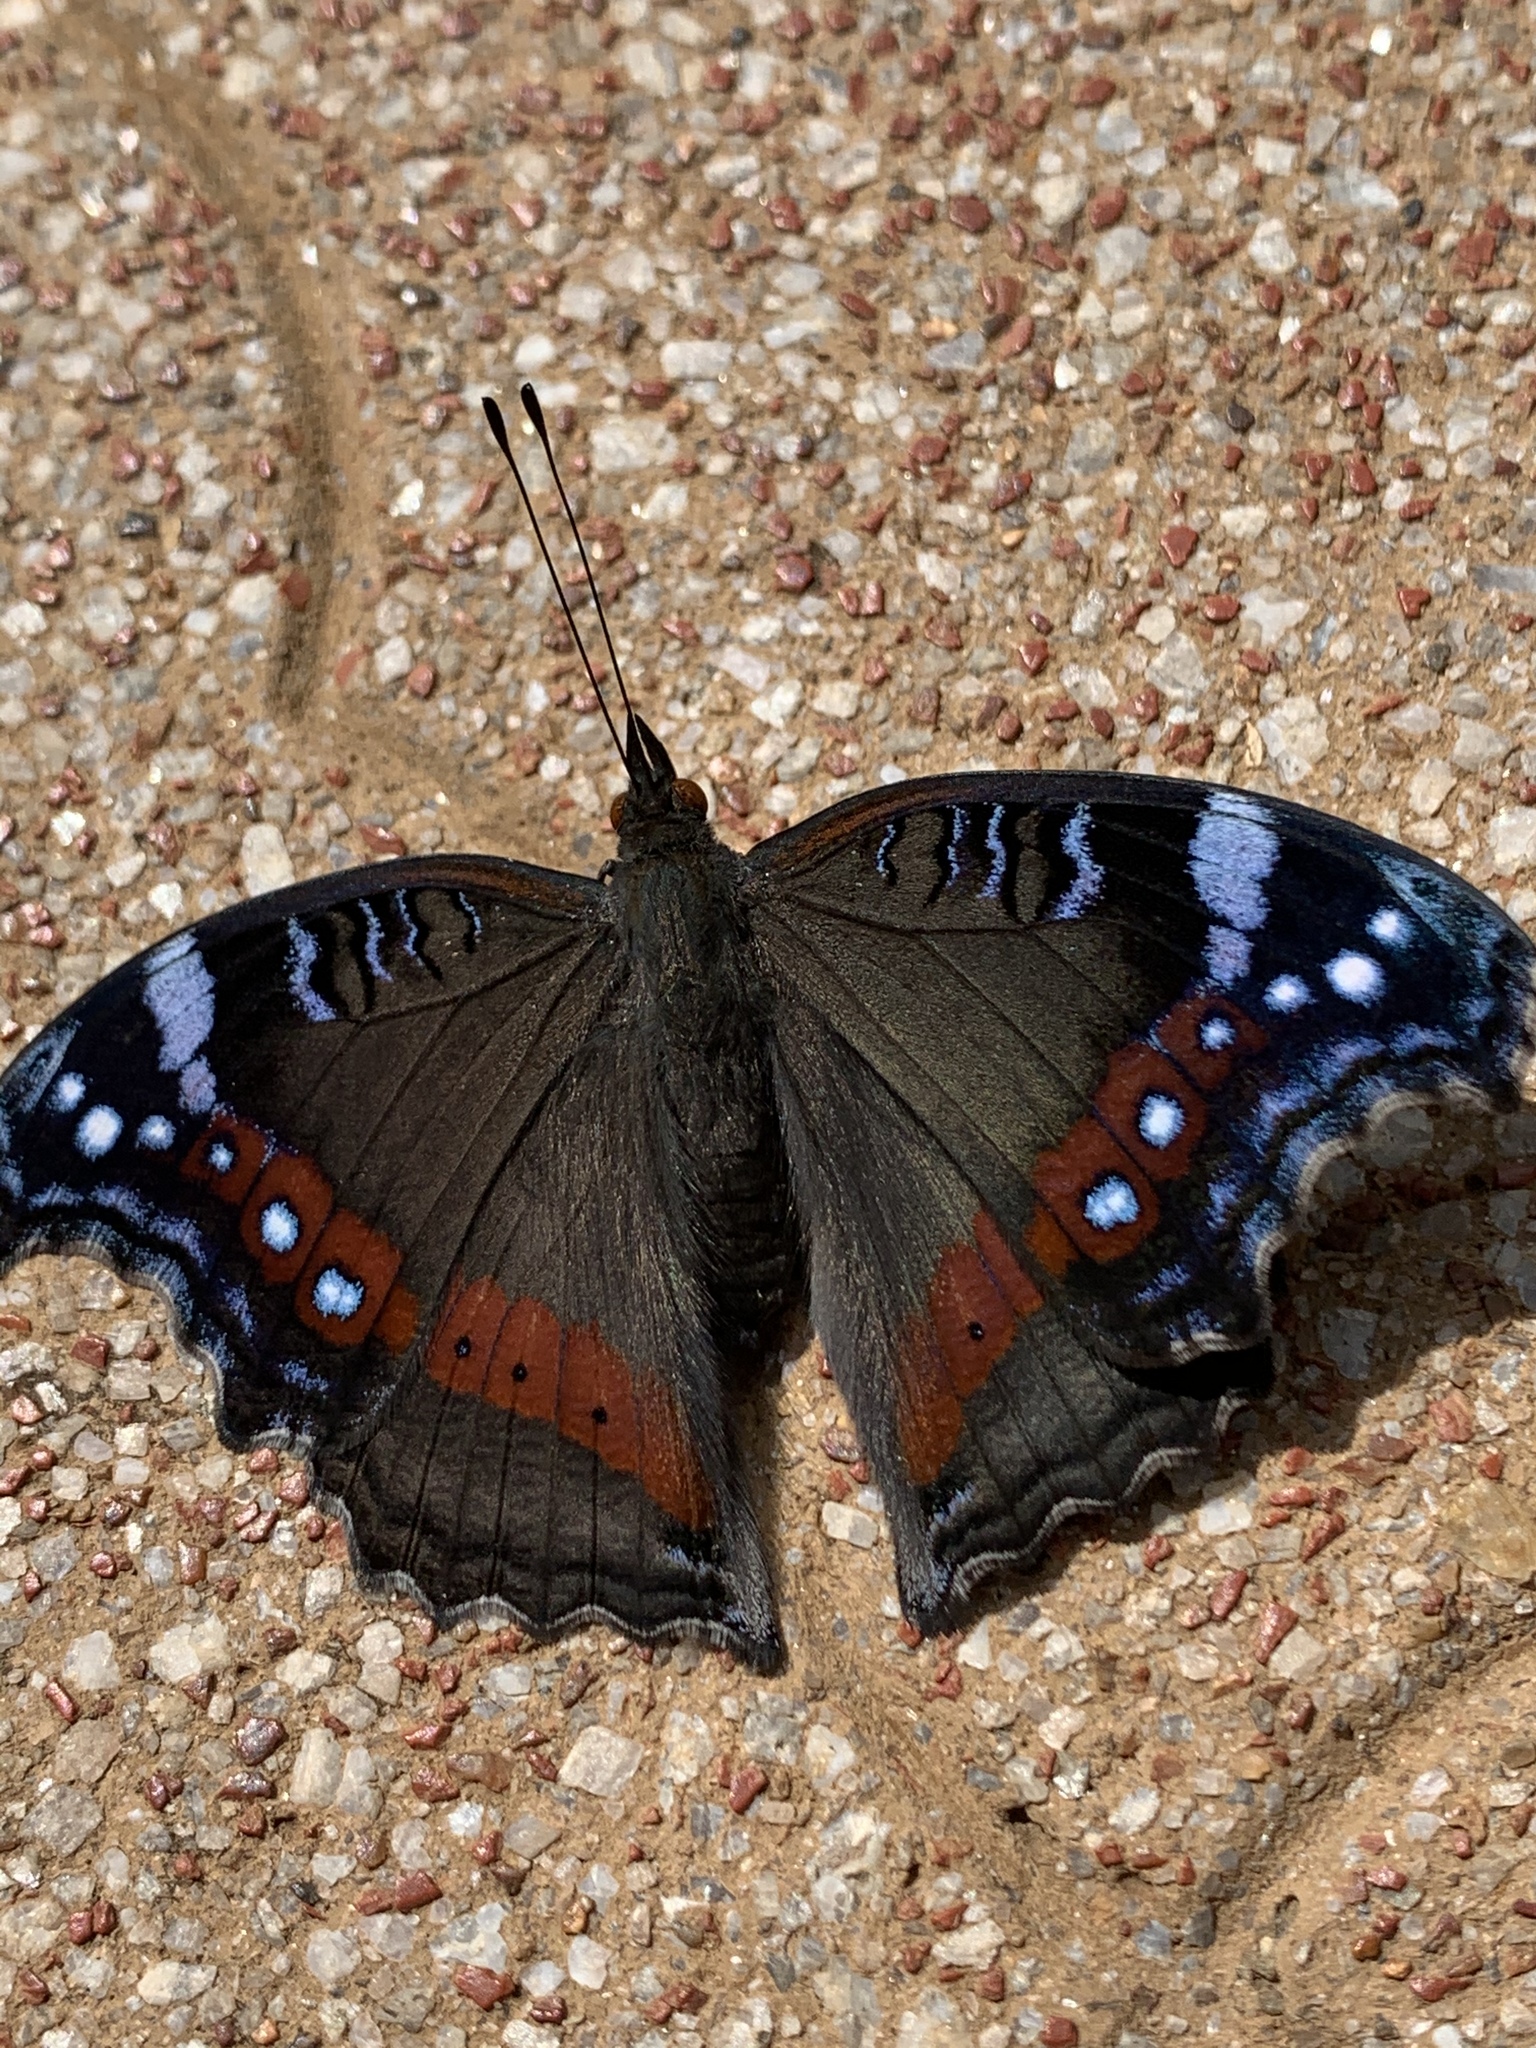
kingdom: Animalia
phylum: Arthropoda
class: Insecta
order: Lepidoptera
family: Nymphalidae
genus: Junonia
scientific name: Junonia archesia
